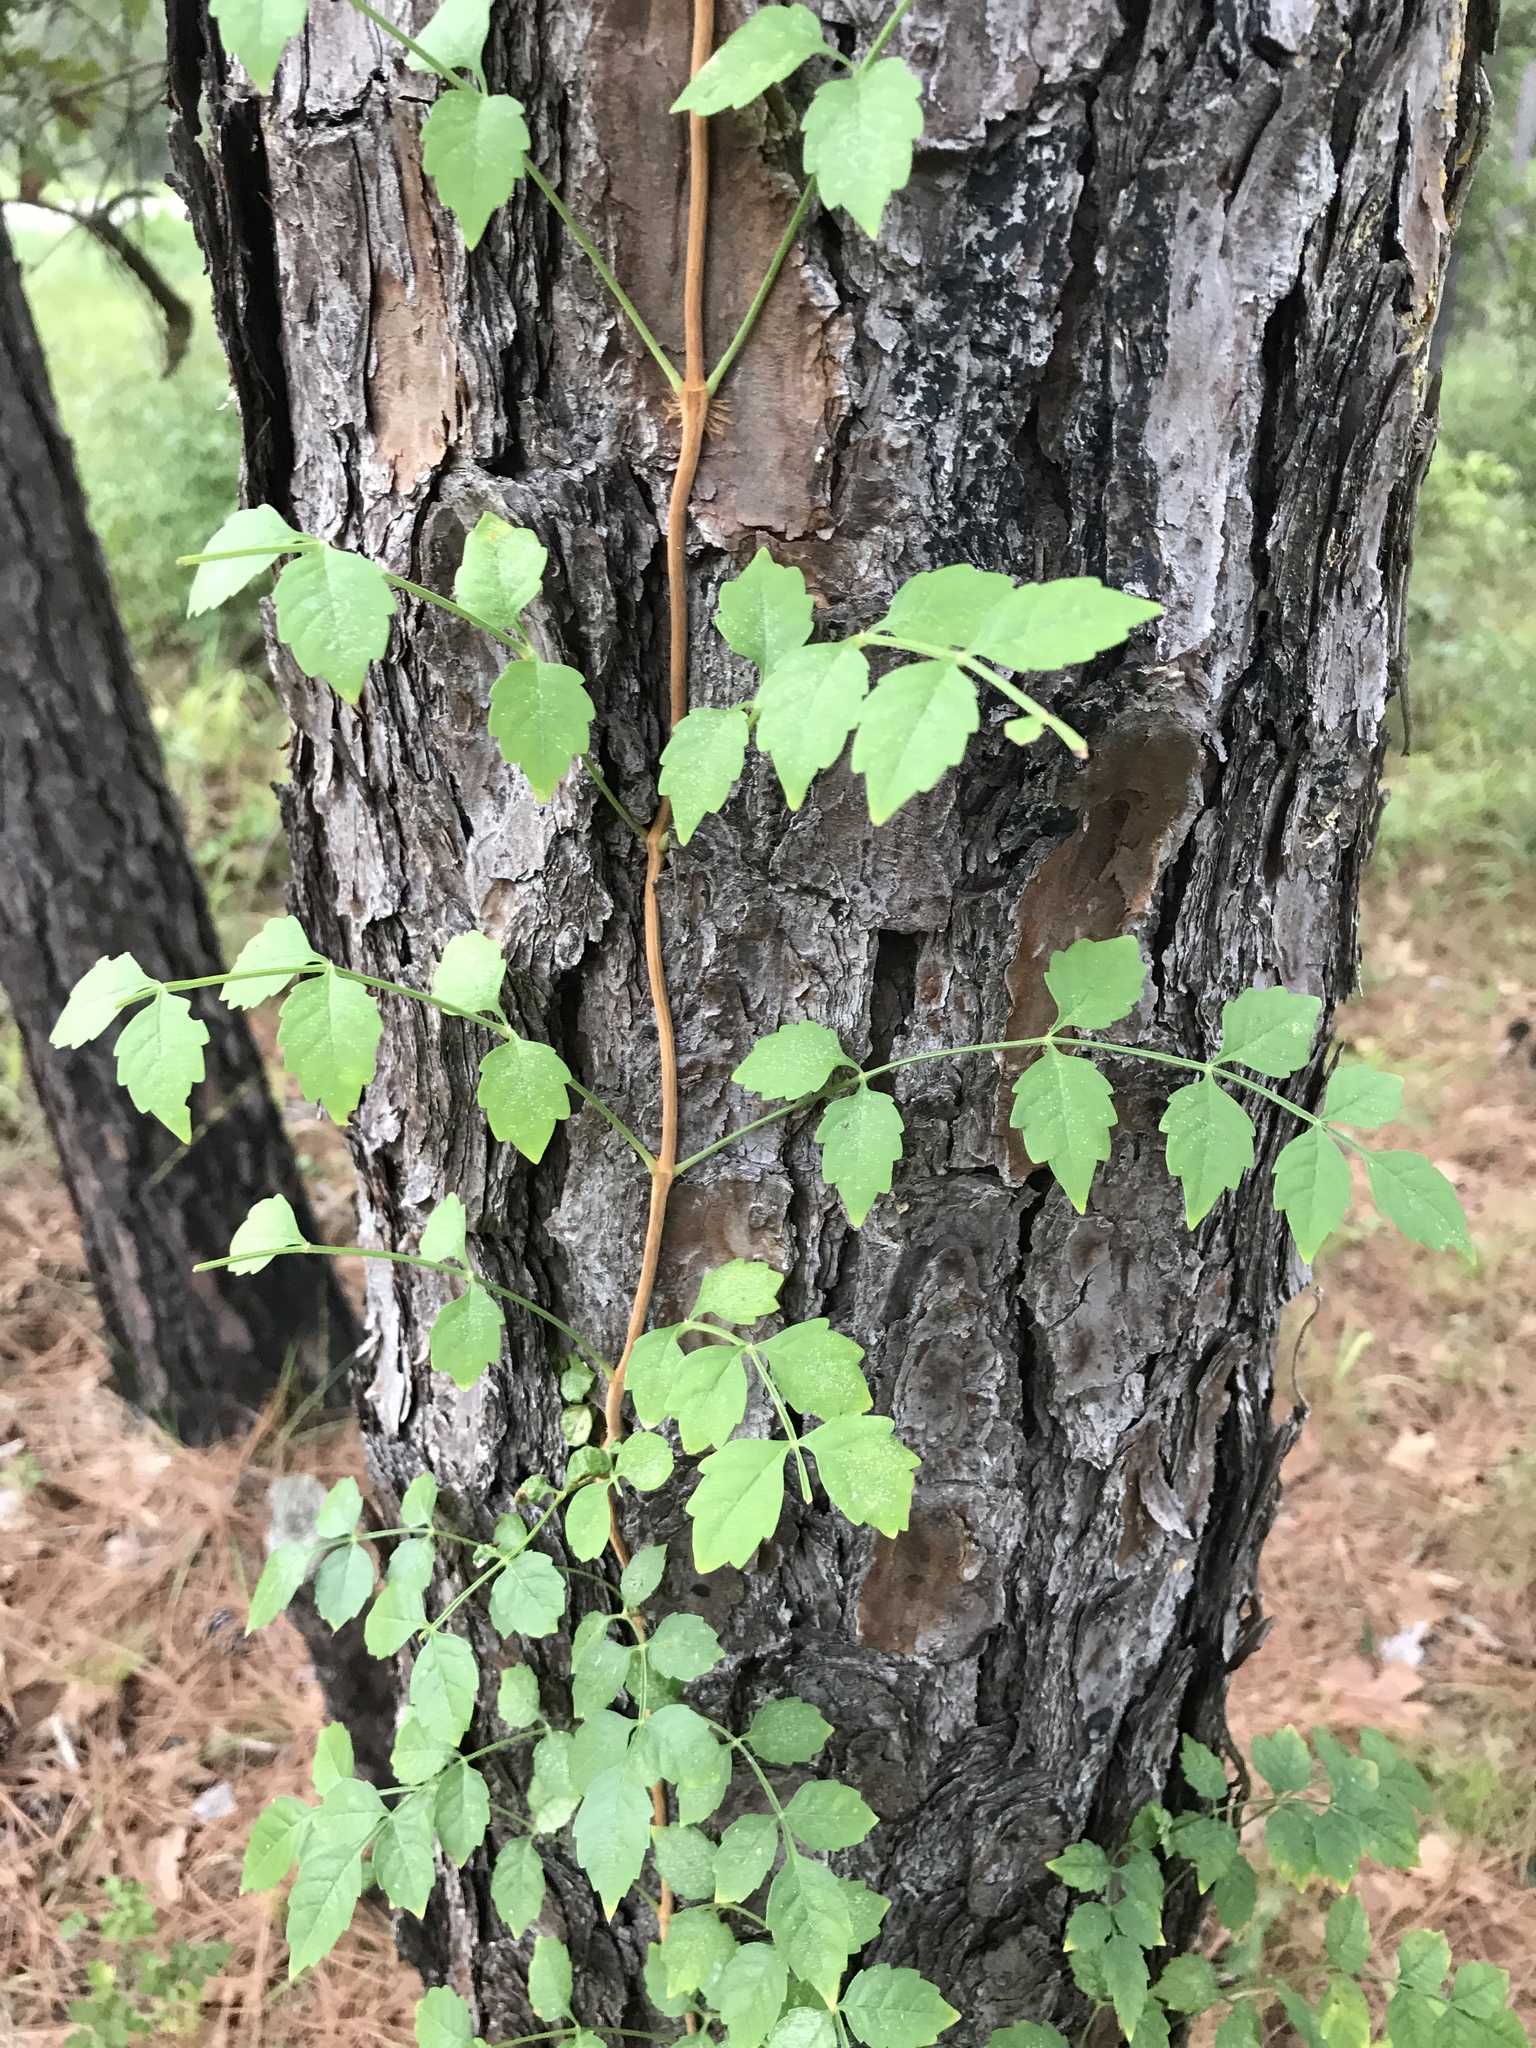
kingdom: Plantae
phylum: Tracheophyta
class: Magnoliopsida
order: Lamiales
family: Bignoniaceae
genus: Campsis
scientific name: Campsis radicans
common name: Trumpet-creeper
